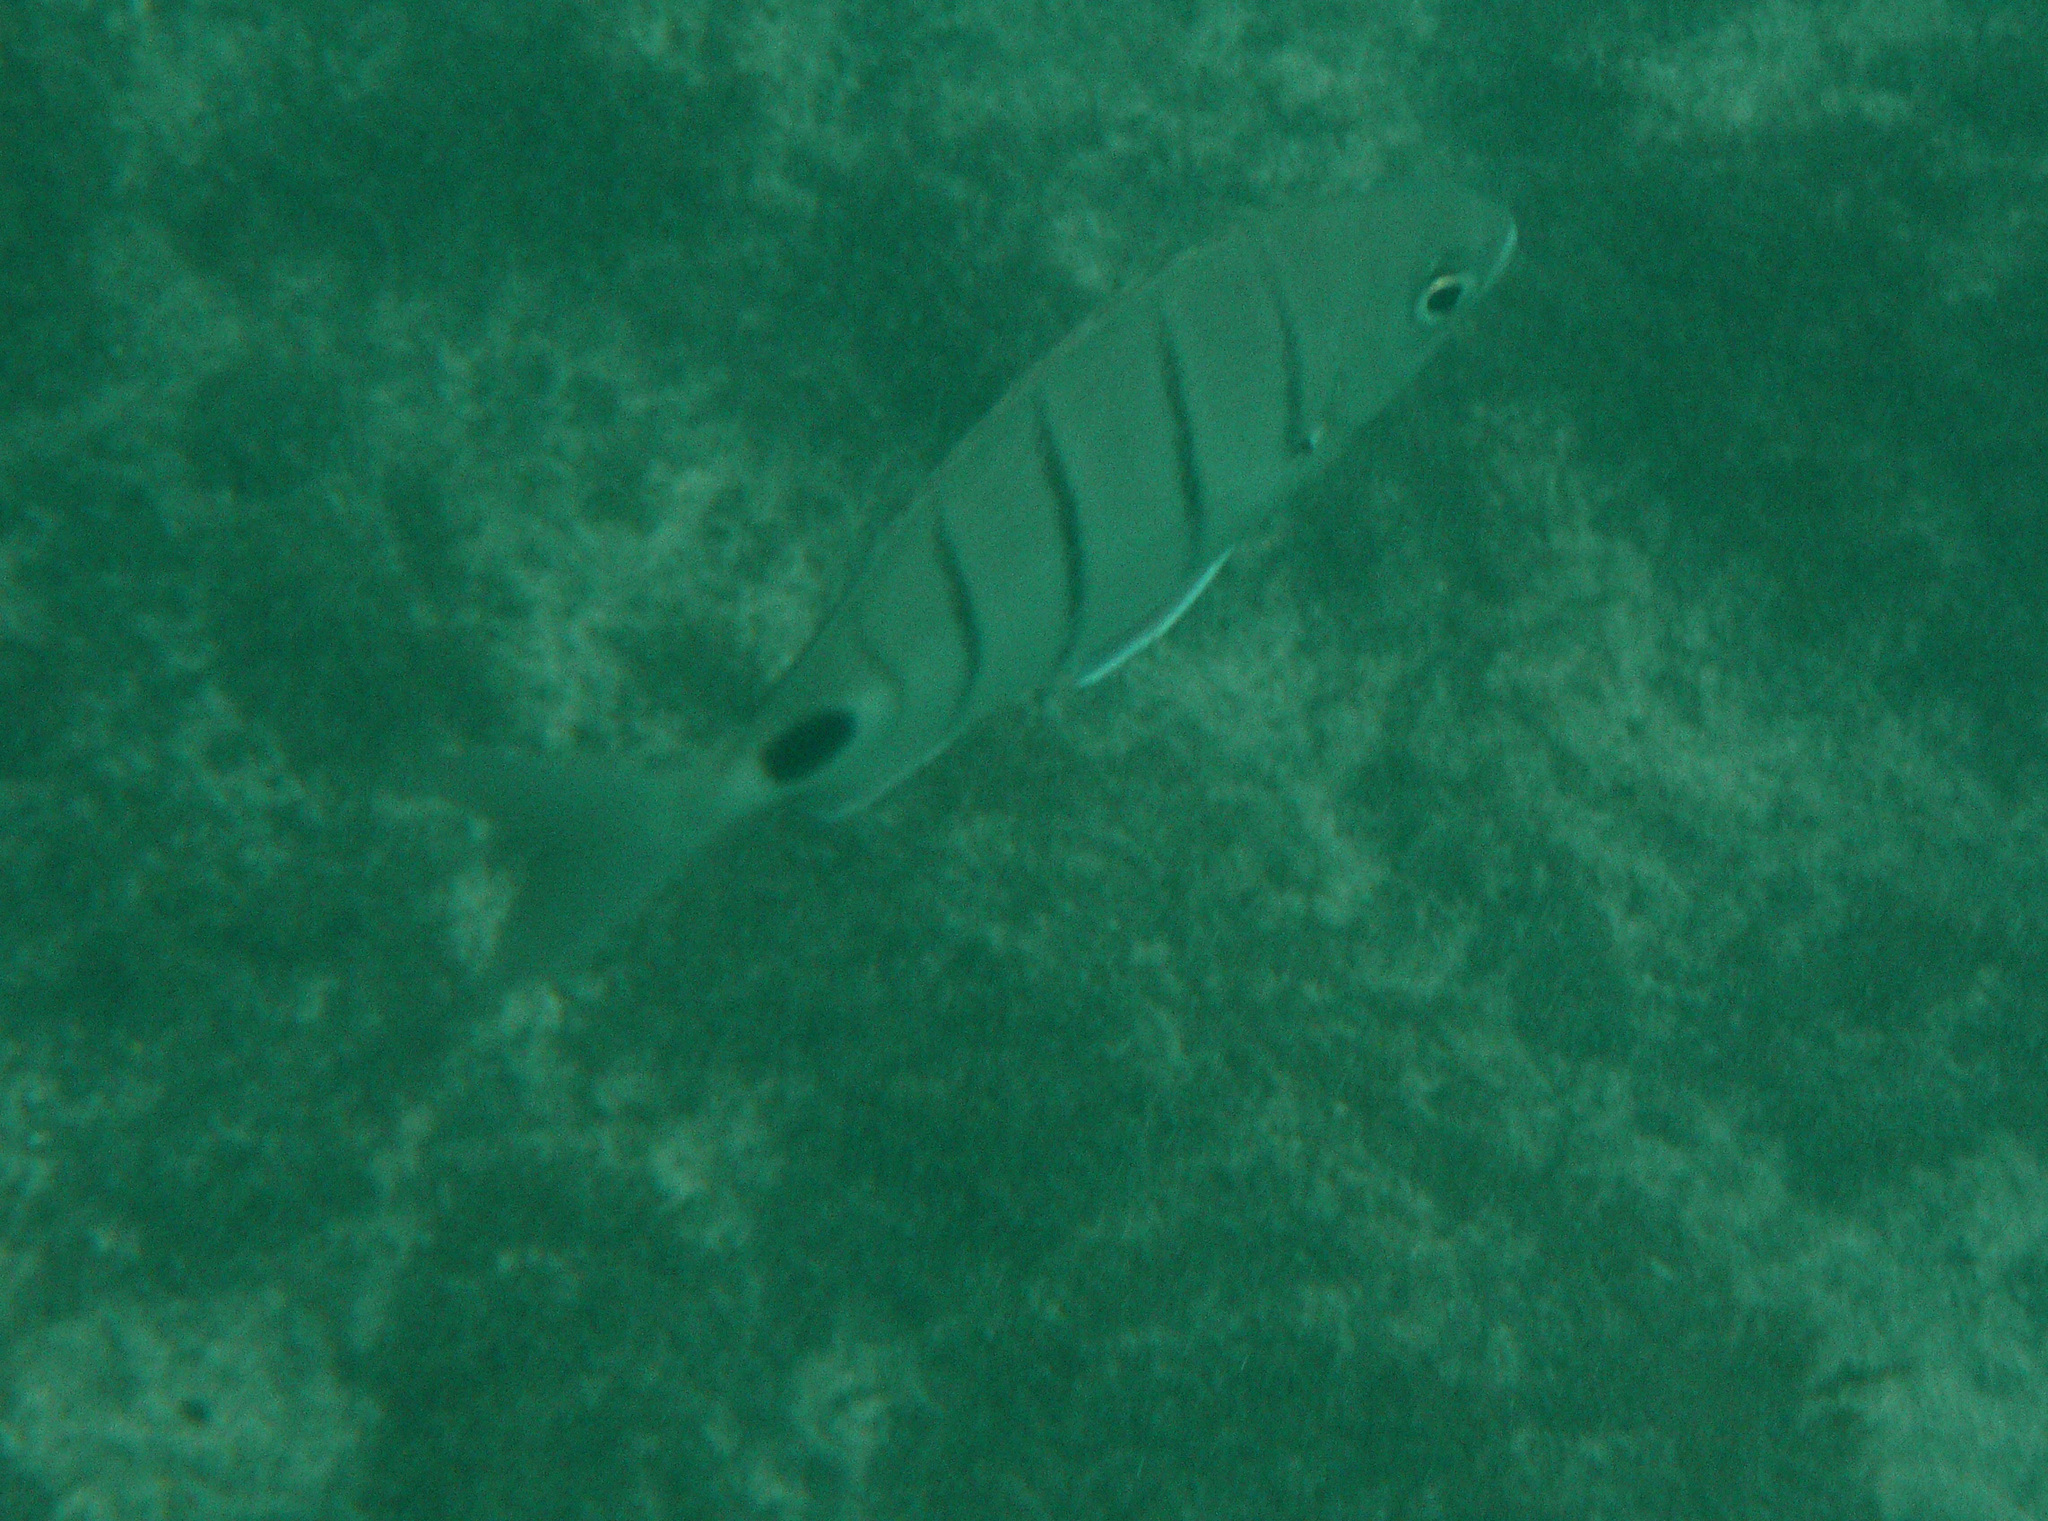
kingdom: Animalia
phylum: Chordata
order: Perciformes
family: Sparidae
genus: Diplodus
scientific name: Diplodus lineatus
